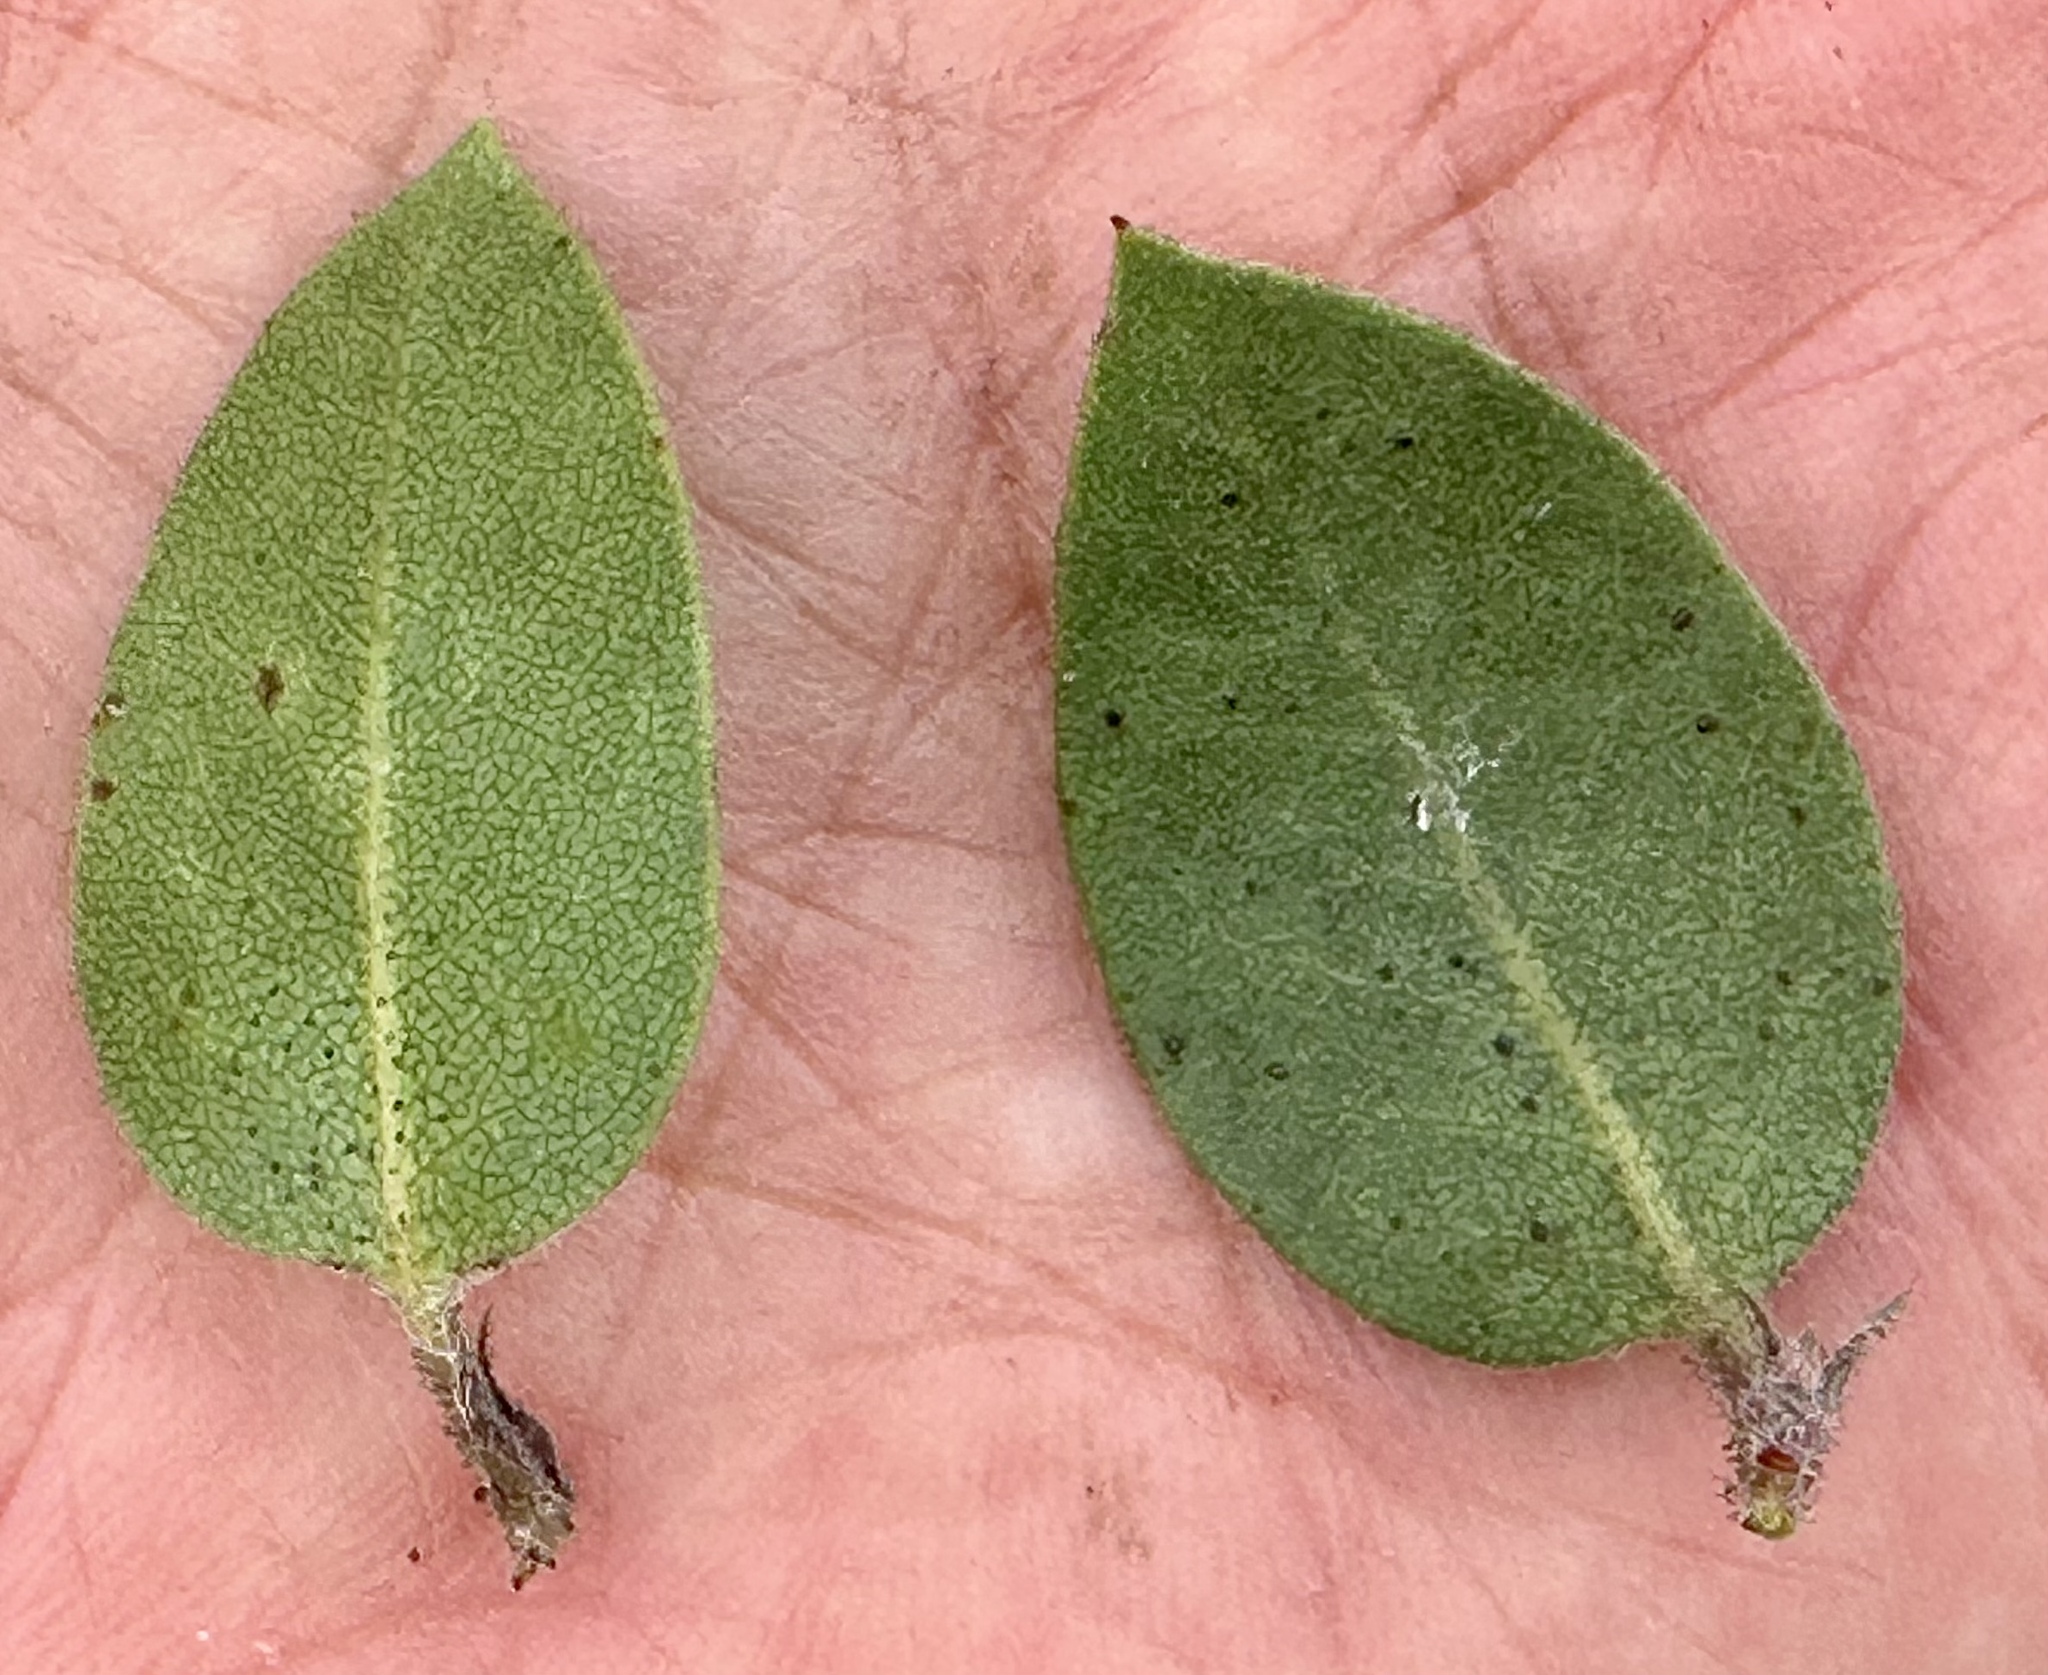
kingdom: Plantae
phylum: Tracheophyta
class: Magnoliopsida
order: Ericales
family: Ericaceae
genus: Arctostaphylos
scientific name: Arctostaphylos montereyensis
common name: Monterey manzanita
